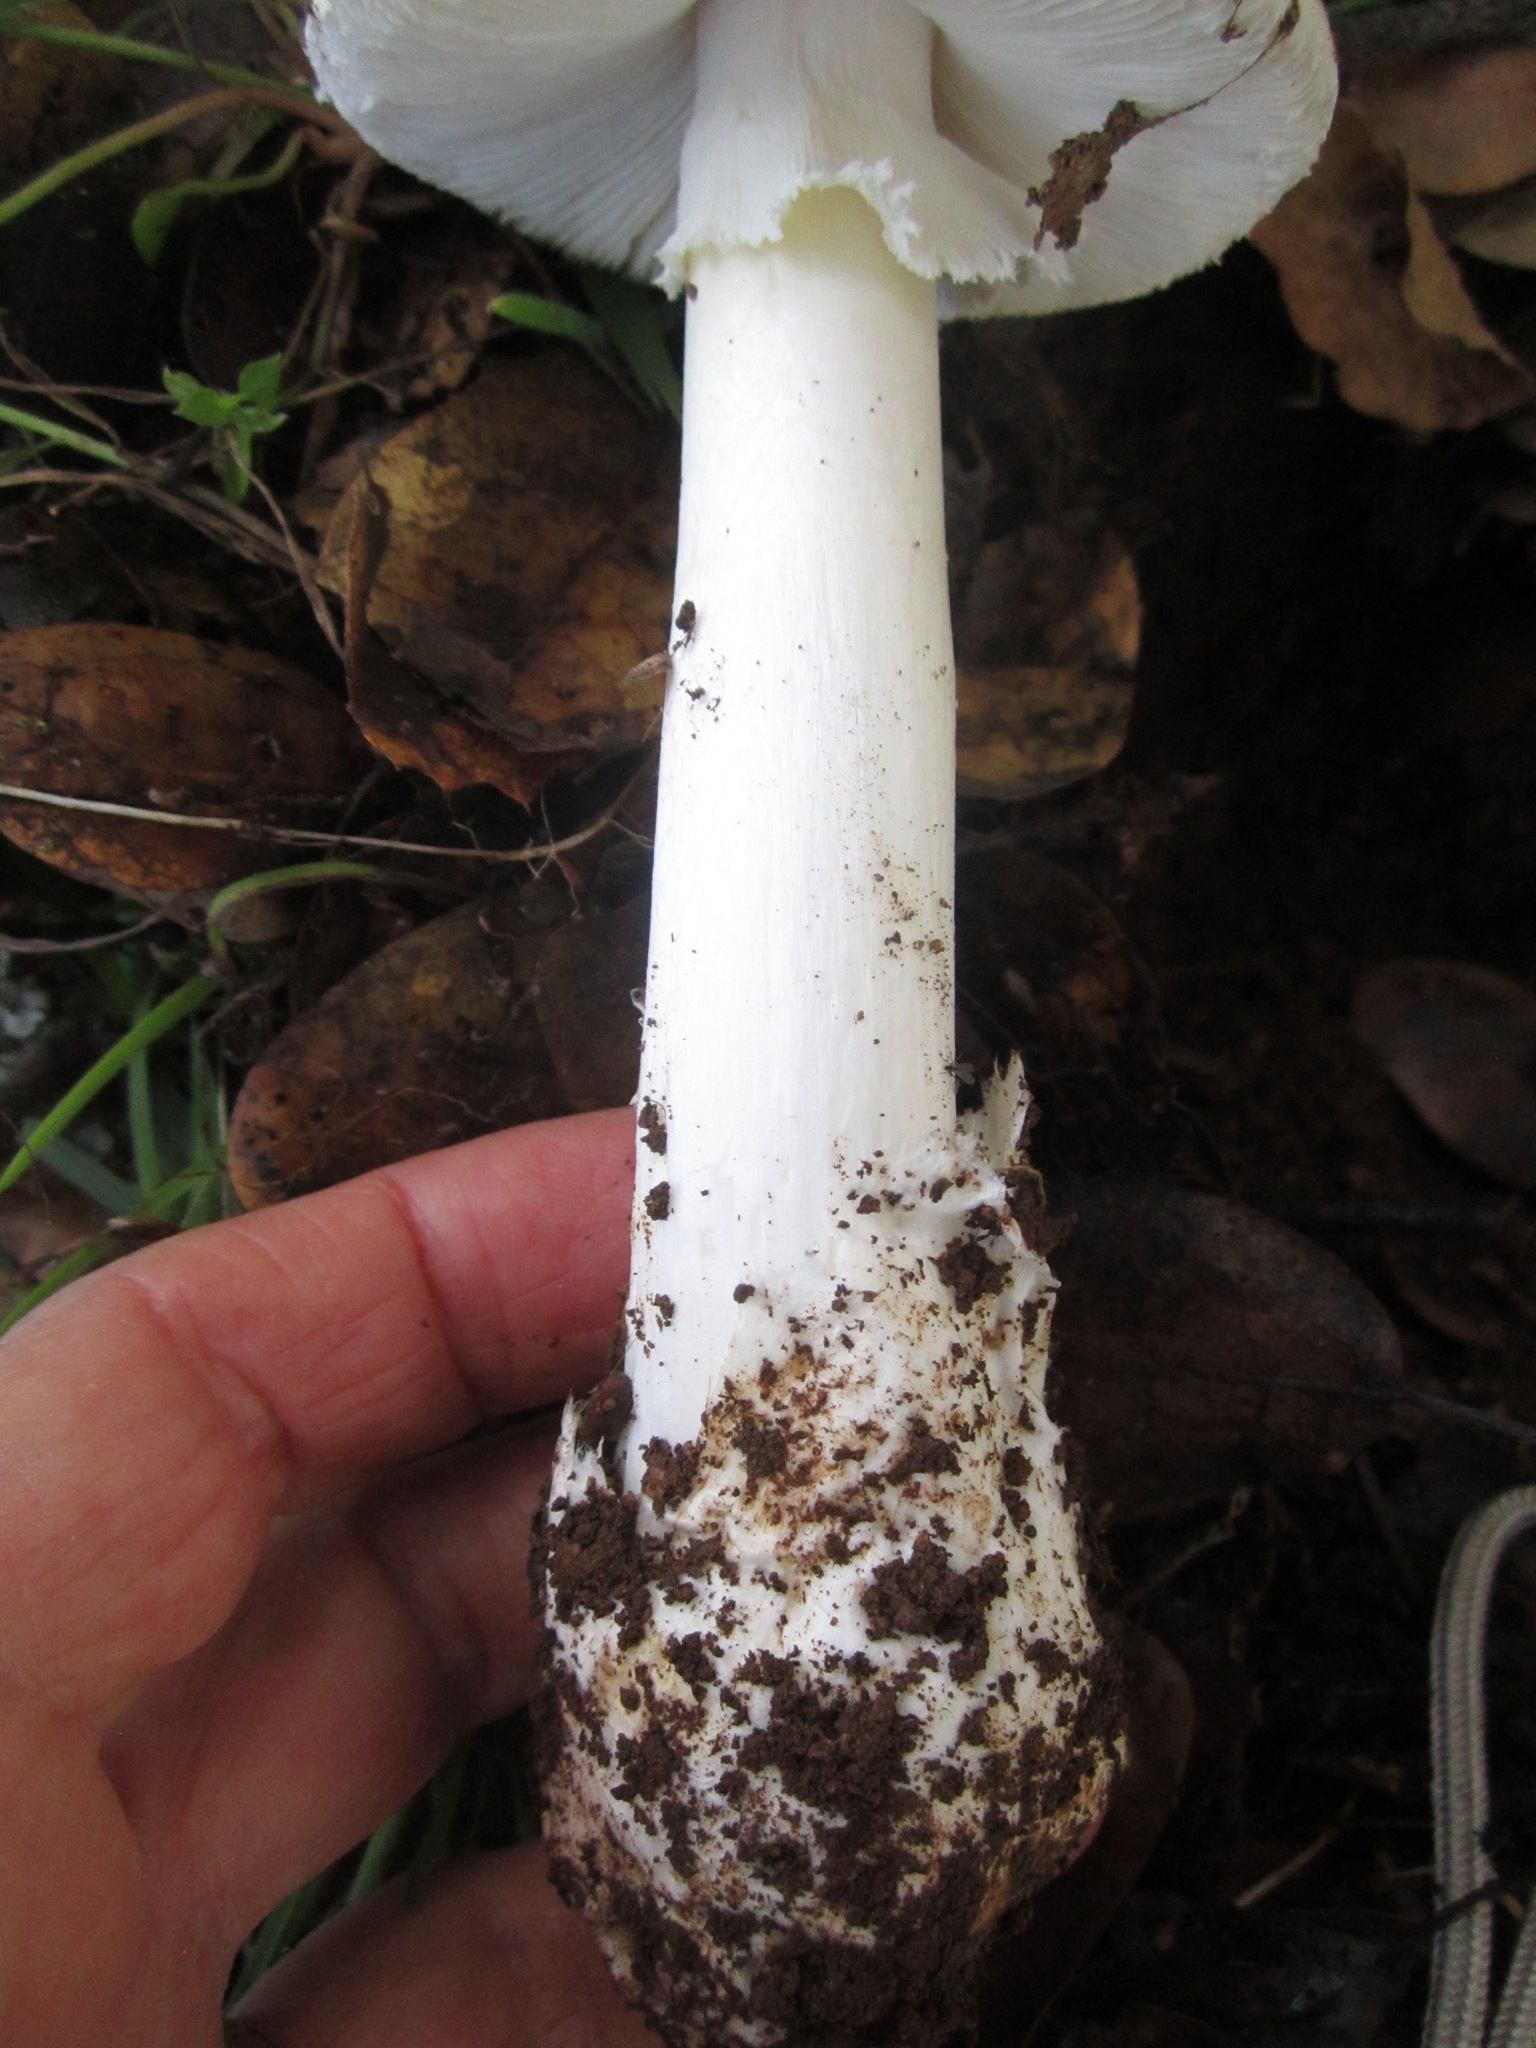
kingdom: Fungi
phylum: Basidiomycota
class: Agaricomycetes
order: Agaricales
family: Amanitaceae
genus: Amanita
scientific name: Amanita ocreata
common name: Western destroying angel
